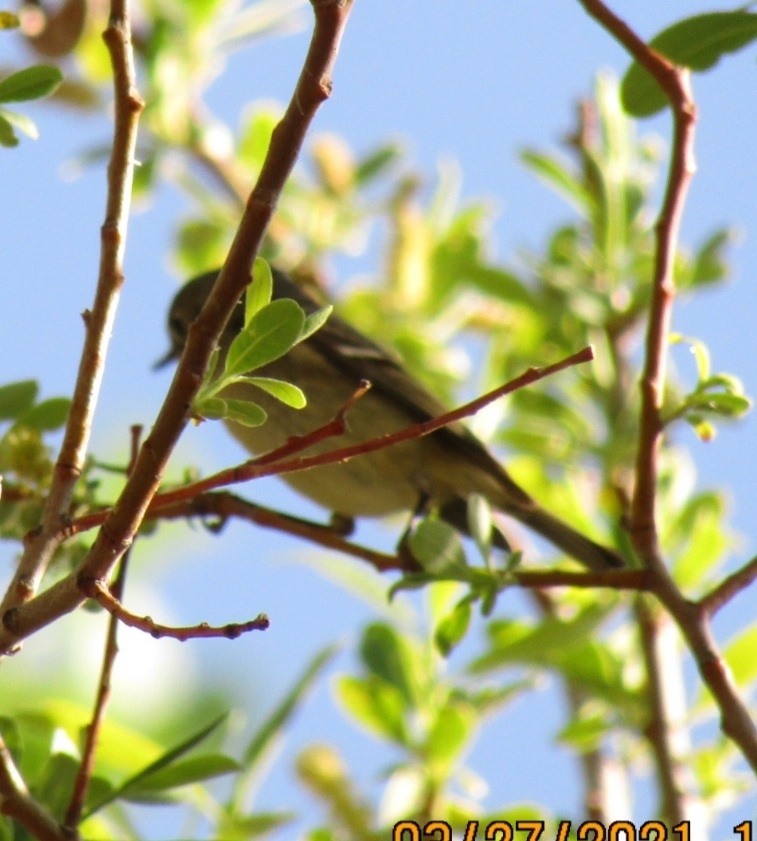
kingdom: Animalia
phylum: Chordata
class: Aves
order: Passeriformes
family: Regulidae
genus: Regulus
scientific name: Regulus calendula
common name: Ruby-crowned kinglet
